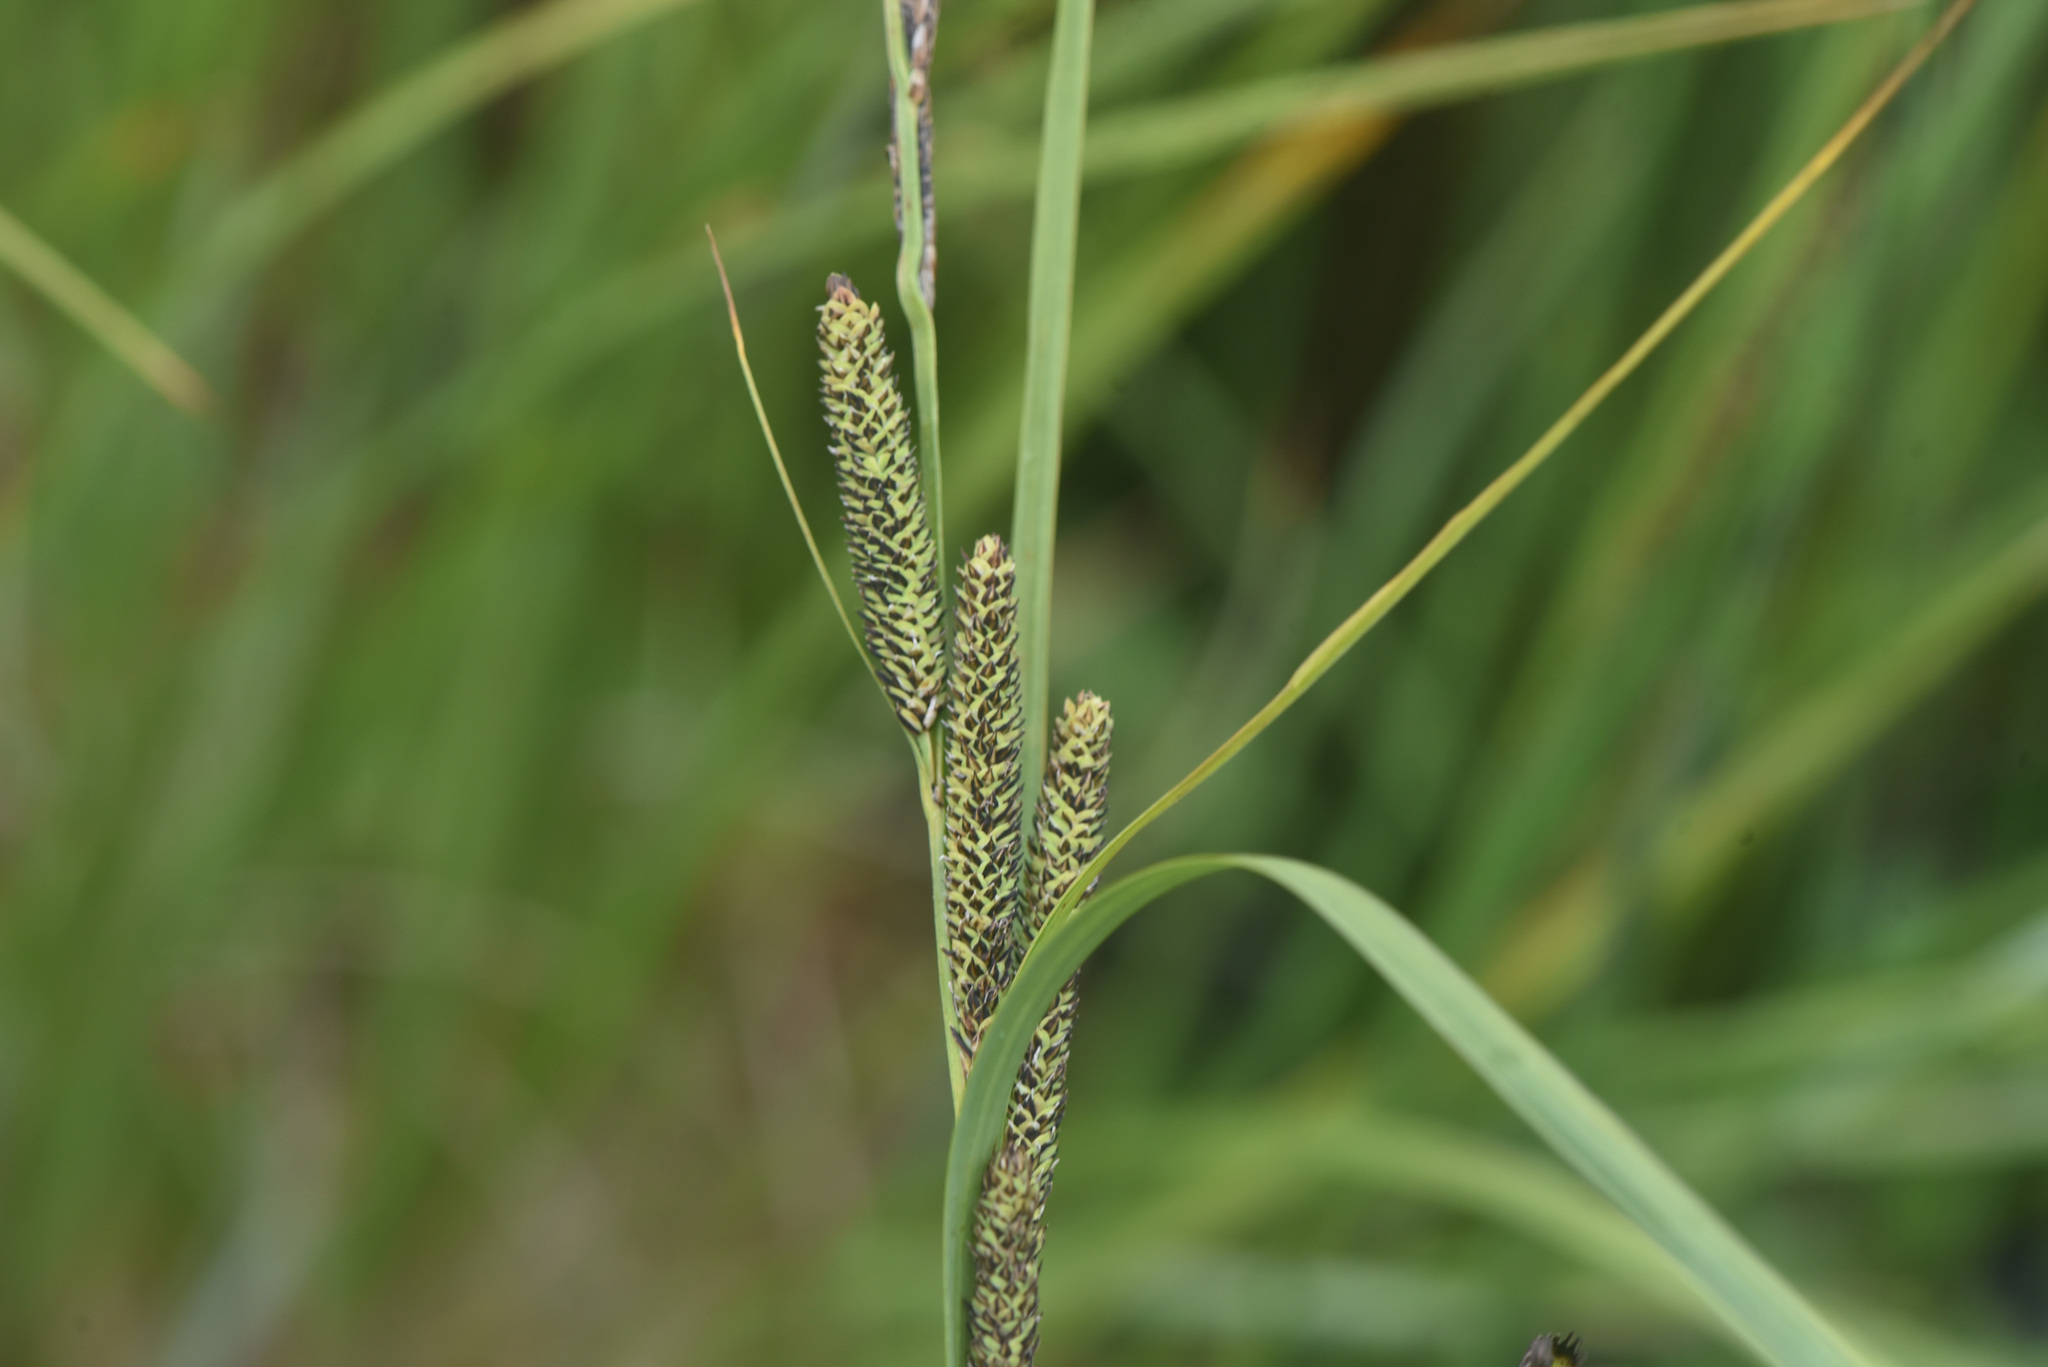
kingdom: Plantae
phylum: Tracheophyta
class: Liliopsida
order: Poales
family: Cyperaceae
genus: Carex
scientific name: Carex aquatilis
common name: Water sedge
